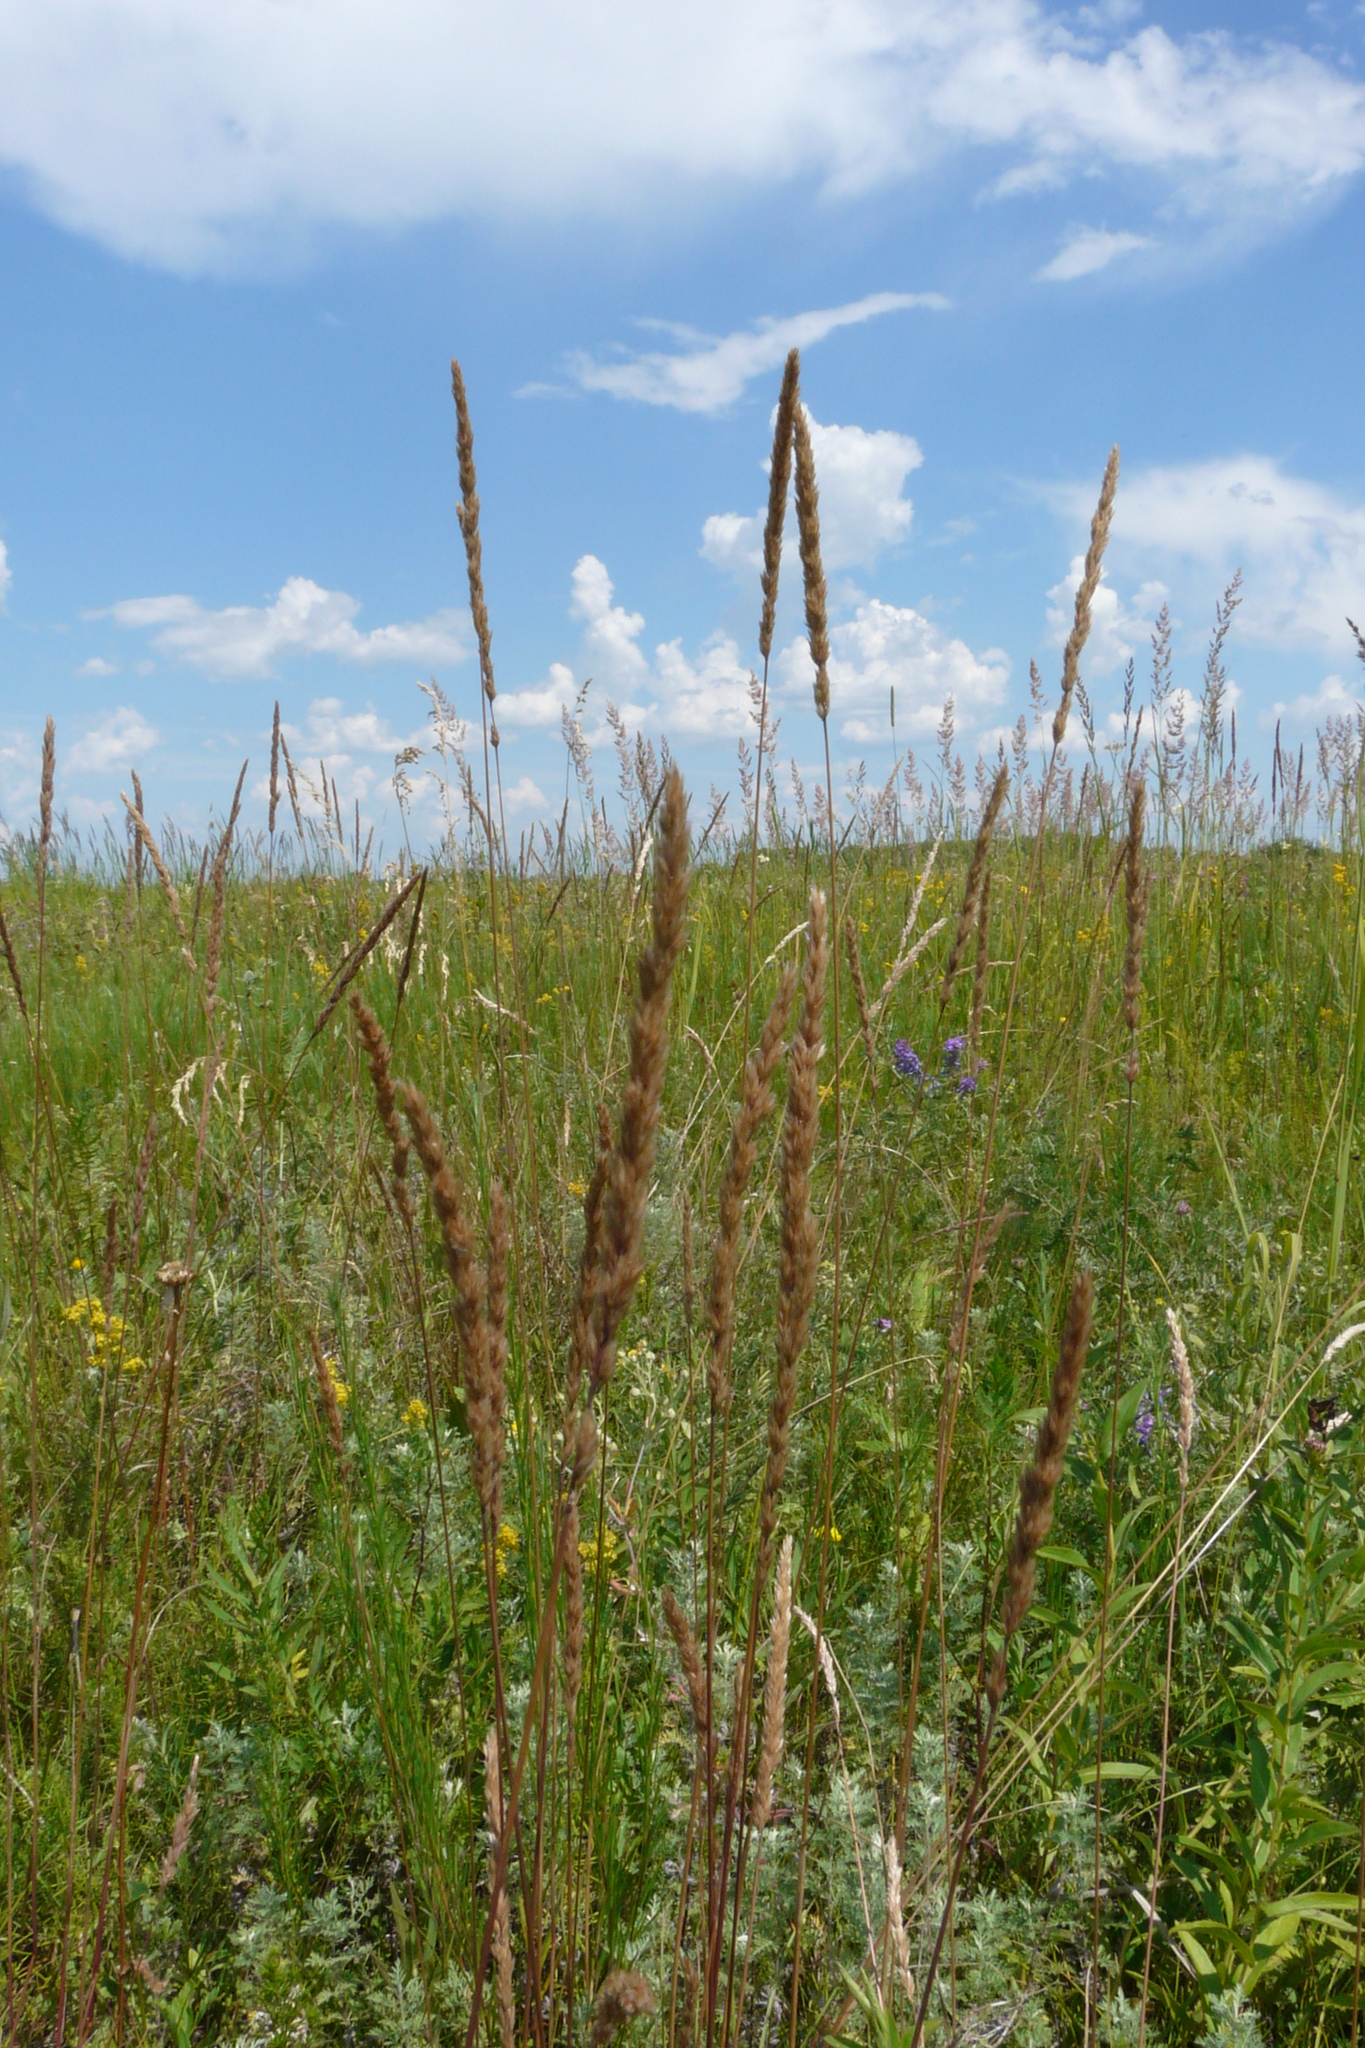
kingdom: Plantae
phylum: Tracheophyta
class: Liliopsida
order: Poales
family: Poaceae
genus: Koeleria
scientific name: Koeleria macrantha
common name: Crested hair-grass
